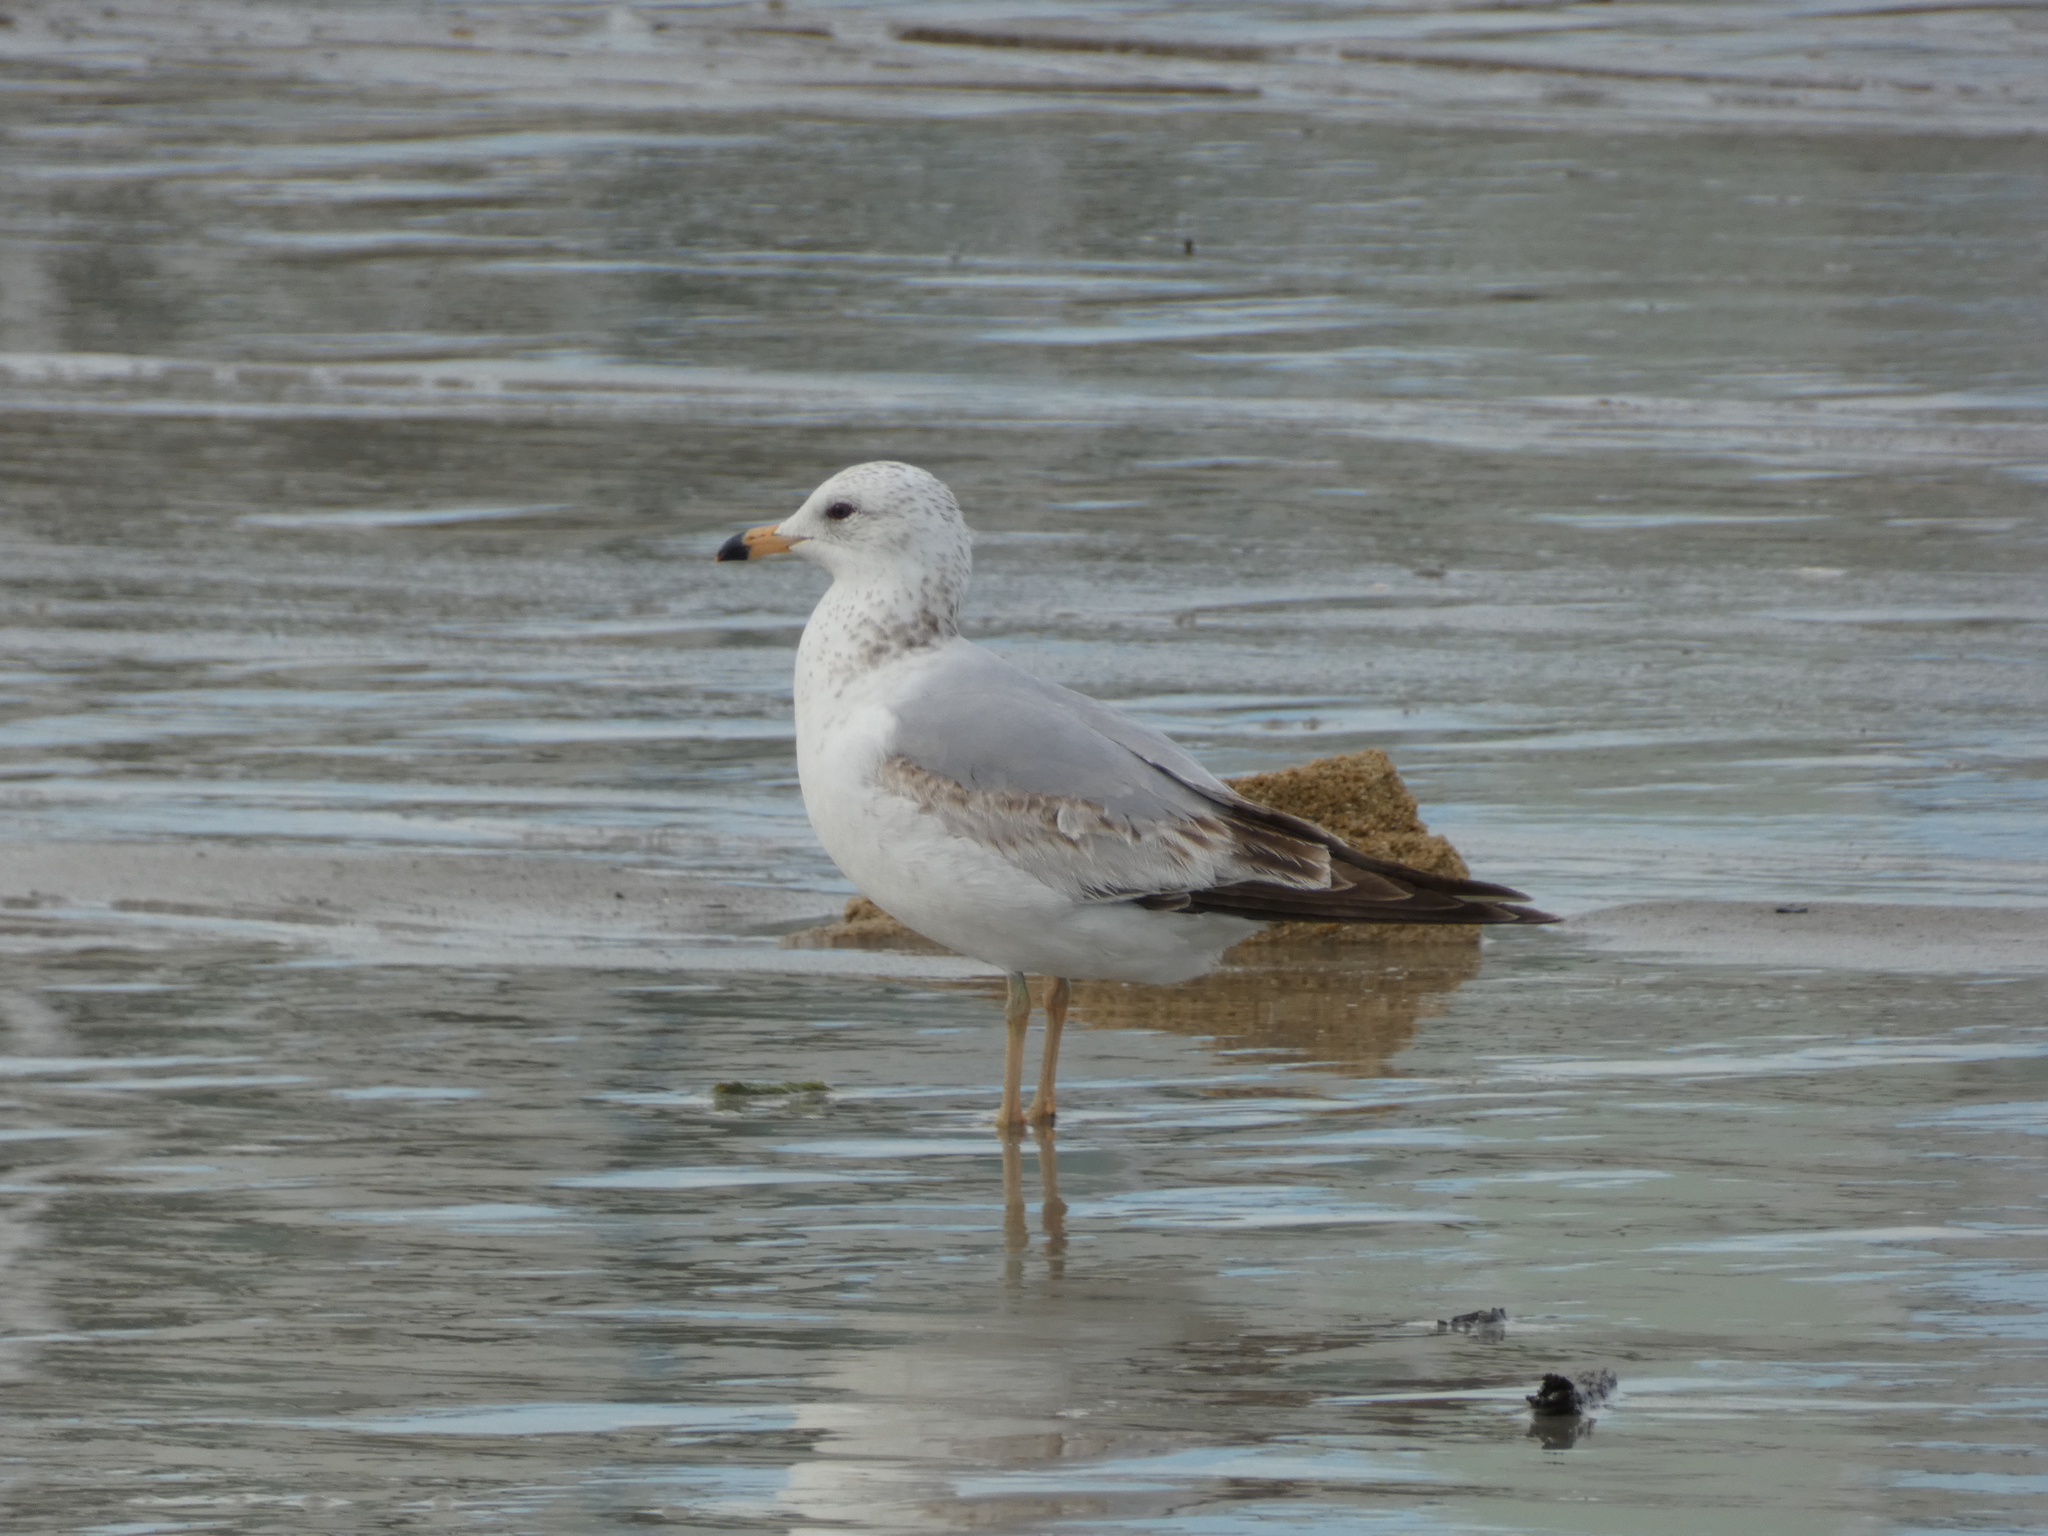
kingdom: Animalia
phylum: Chordata
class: Aves
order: Charadriiformes
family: Laridae
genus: Larus
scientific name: Larus delawarensis
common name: Ring-billed gull
